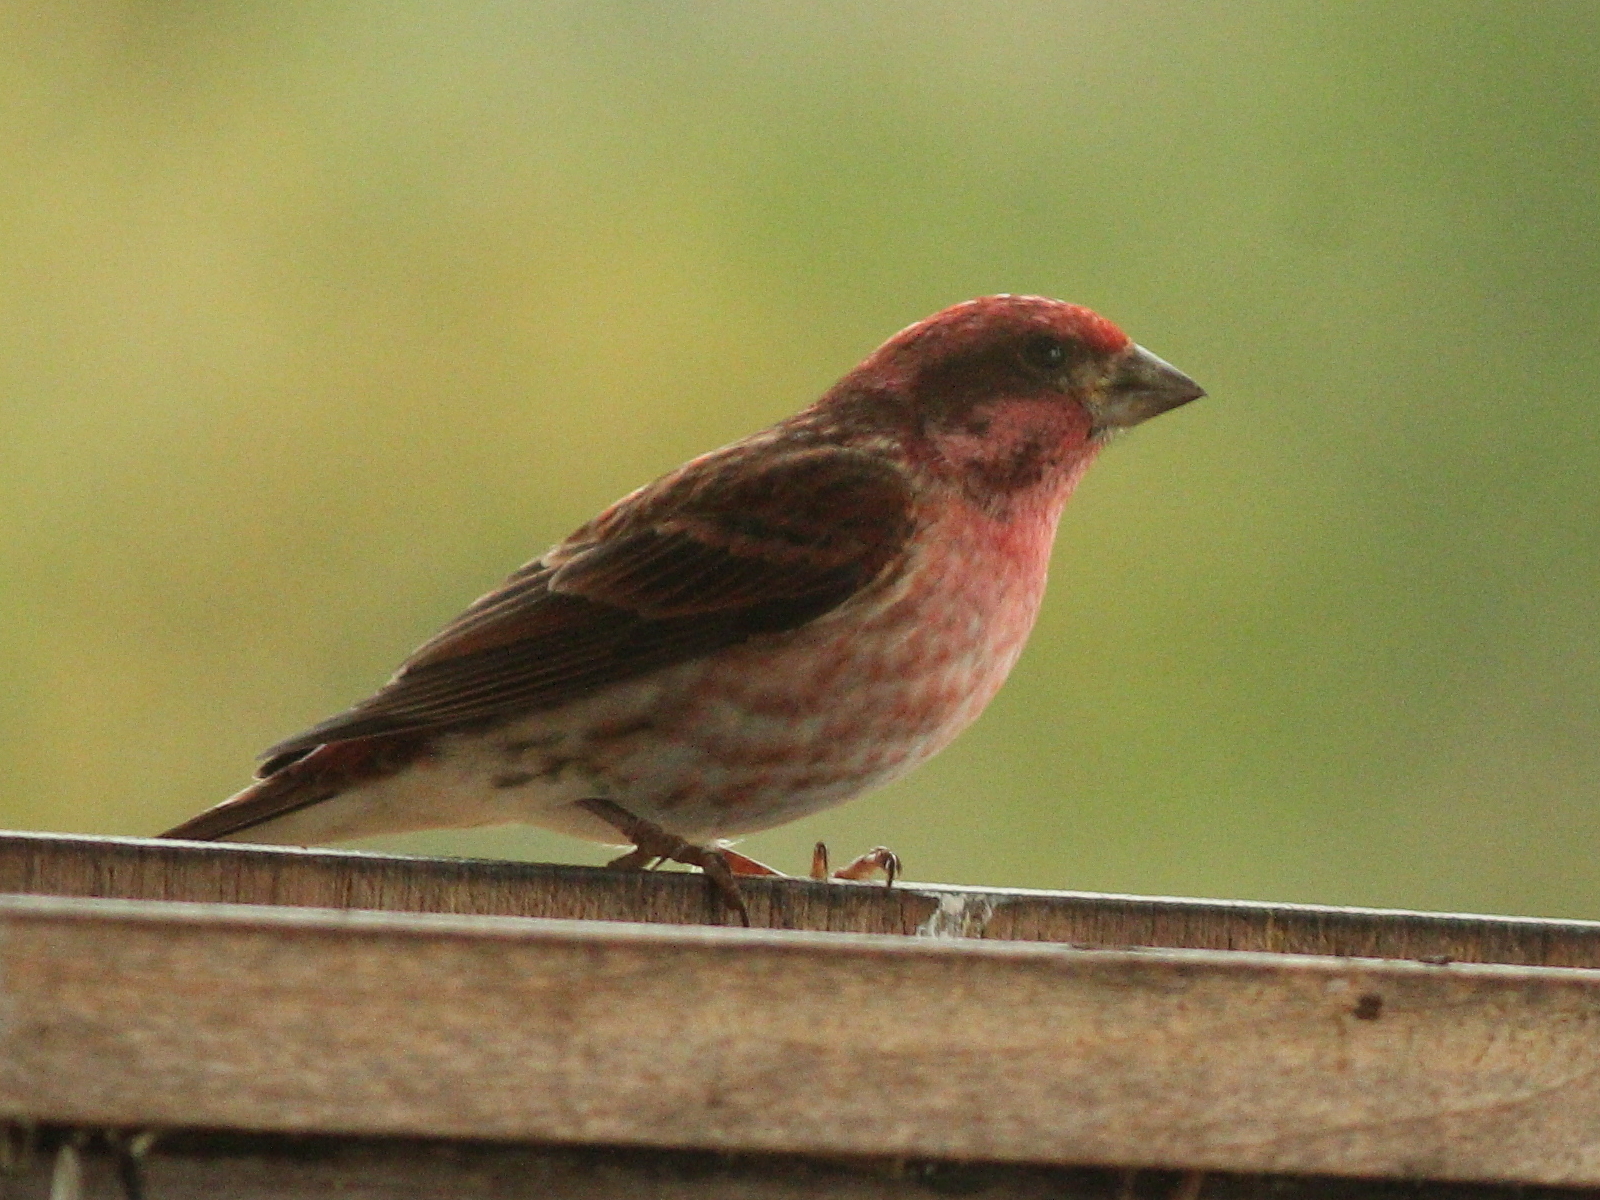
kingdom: Animalia
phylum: Chordata
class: Aves
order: Passeriformes
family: Fringillidae
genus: Haemorhous
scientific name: Haemorhous purpureus
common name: Purple finch
